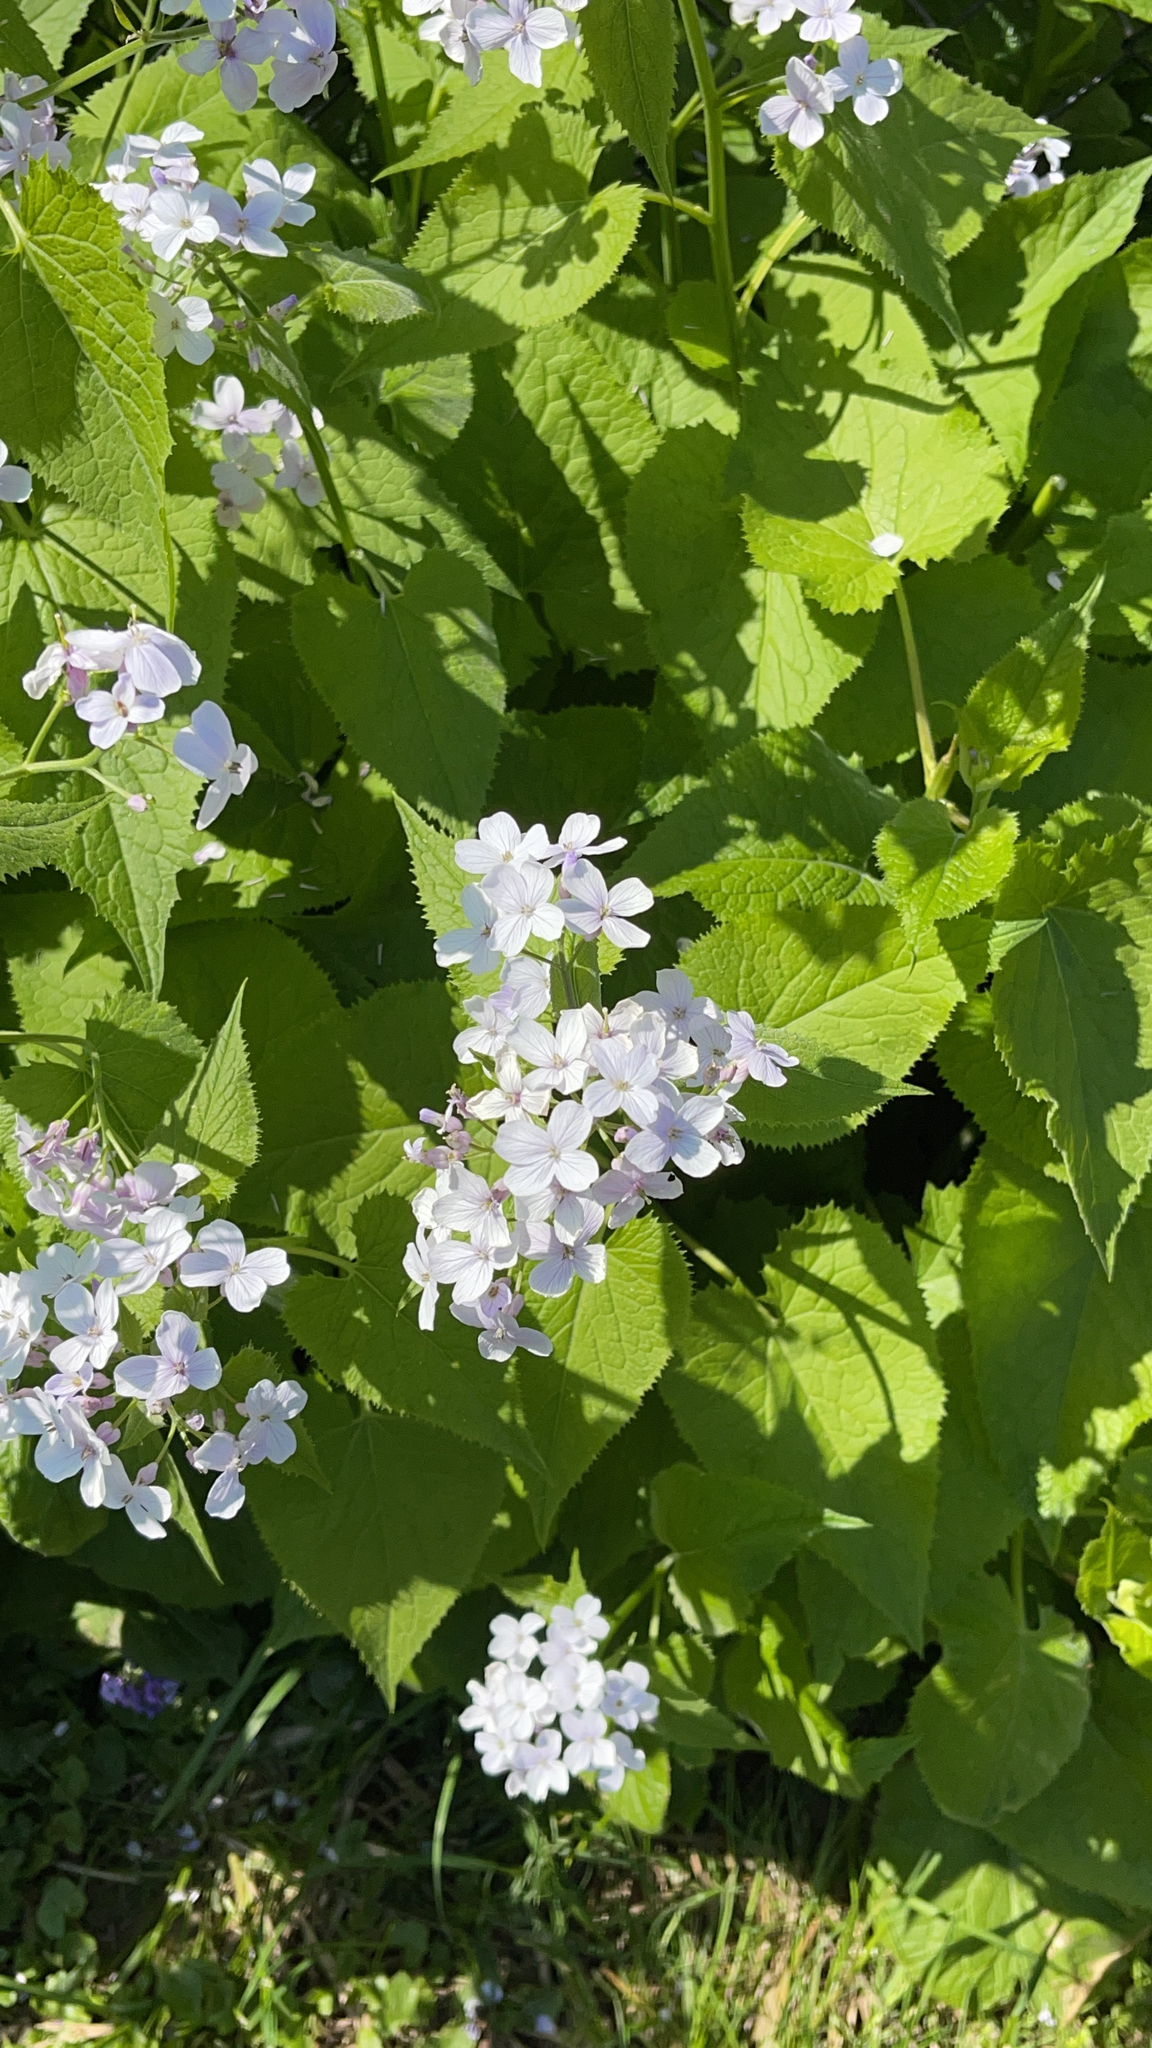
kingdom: Plantae
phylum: Tracheophyta
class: Magnoliopsida
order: Brassicales
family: Brassicaceae
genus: Lunaria
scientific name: Lunaria rediviva
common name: Perennial honesty
